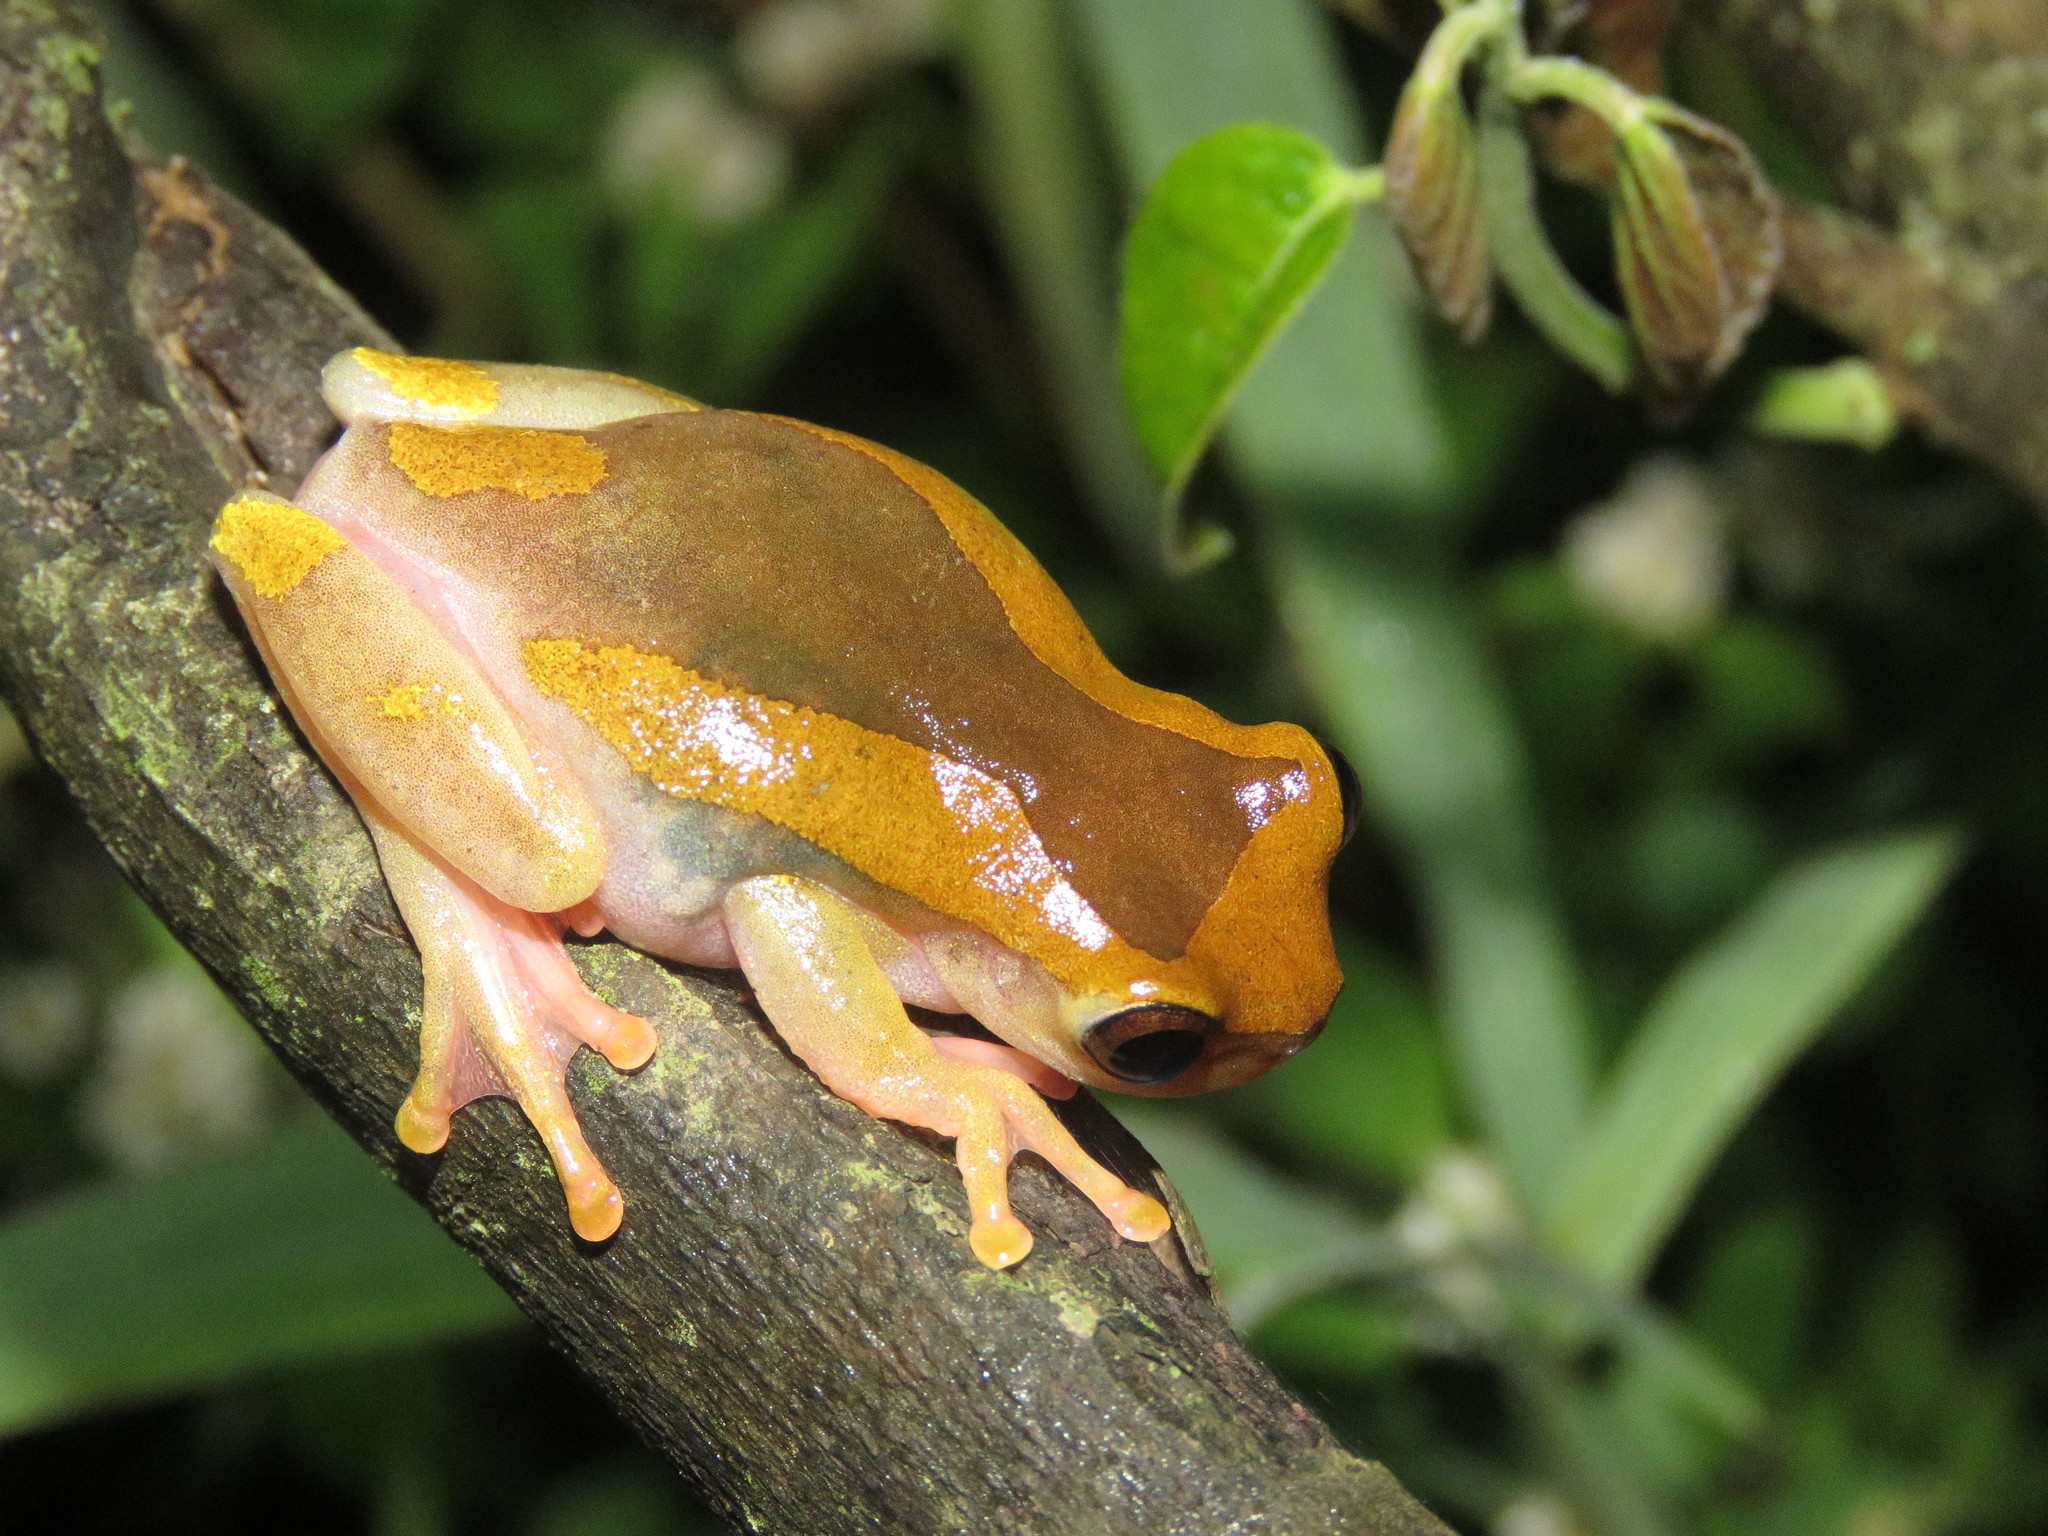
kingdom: Animalia
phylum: Chordata
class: Amphibia
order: Anura
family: Hylidae
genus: Dendropsophus
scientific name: Dendropsophus arndti
